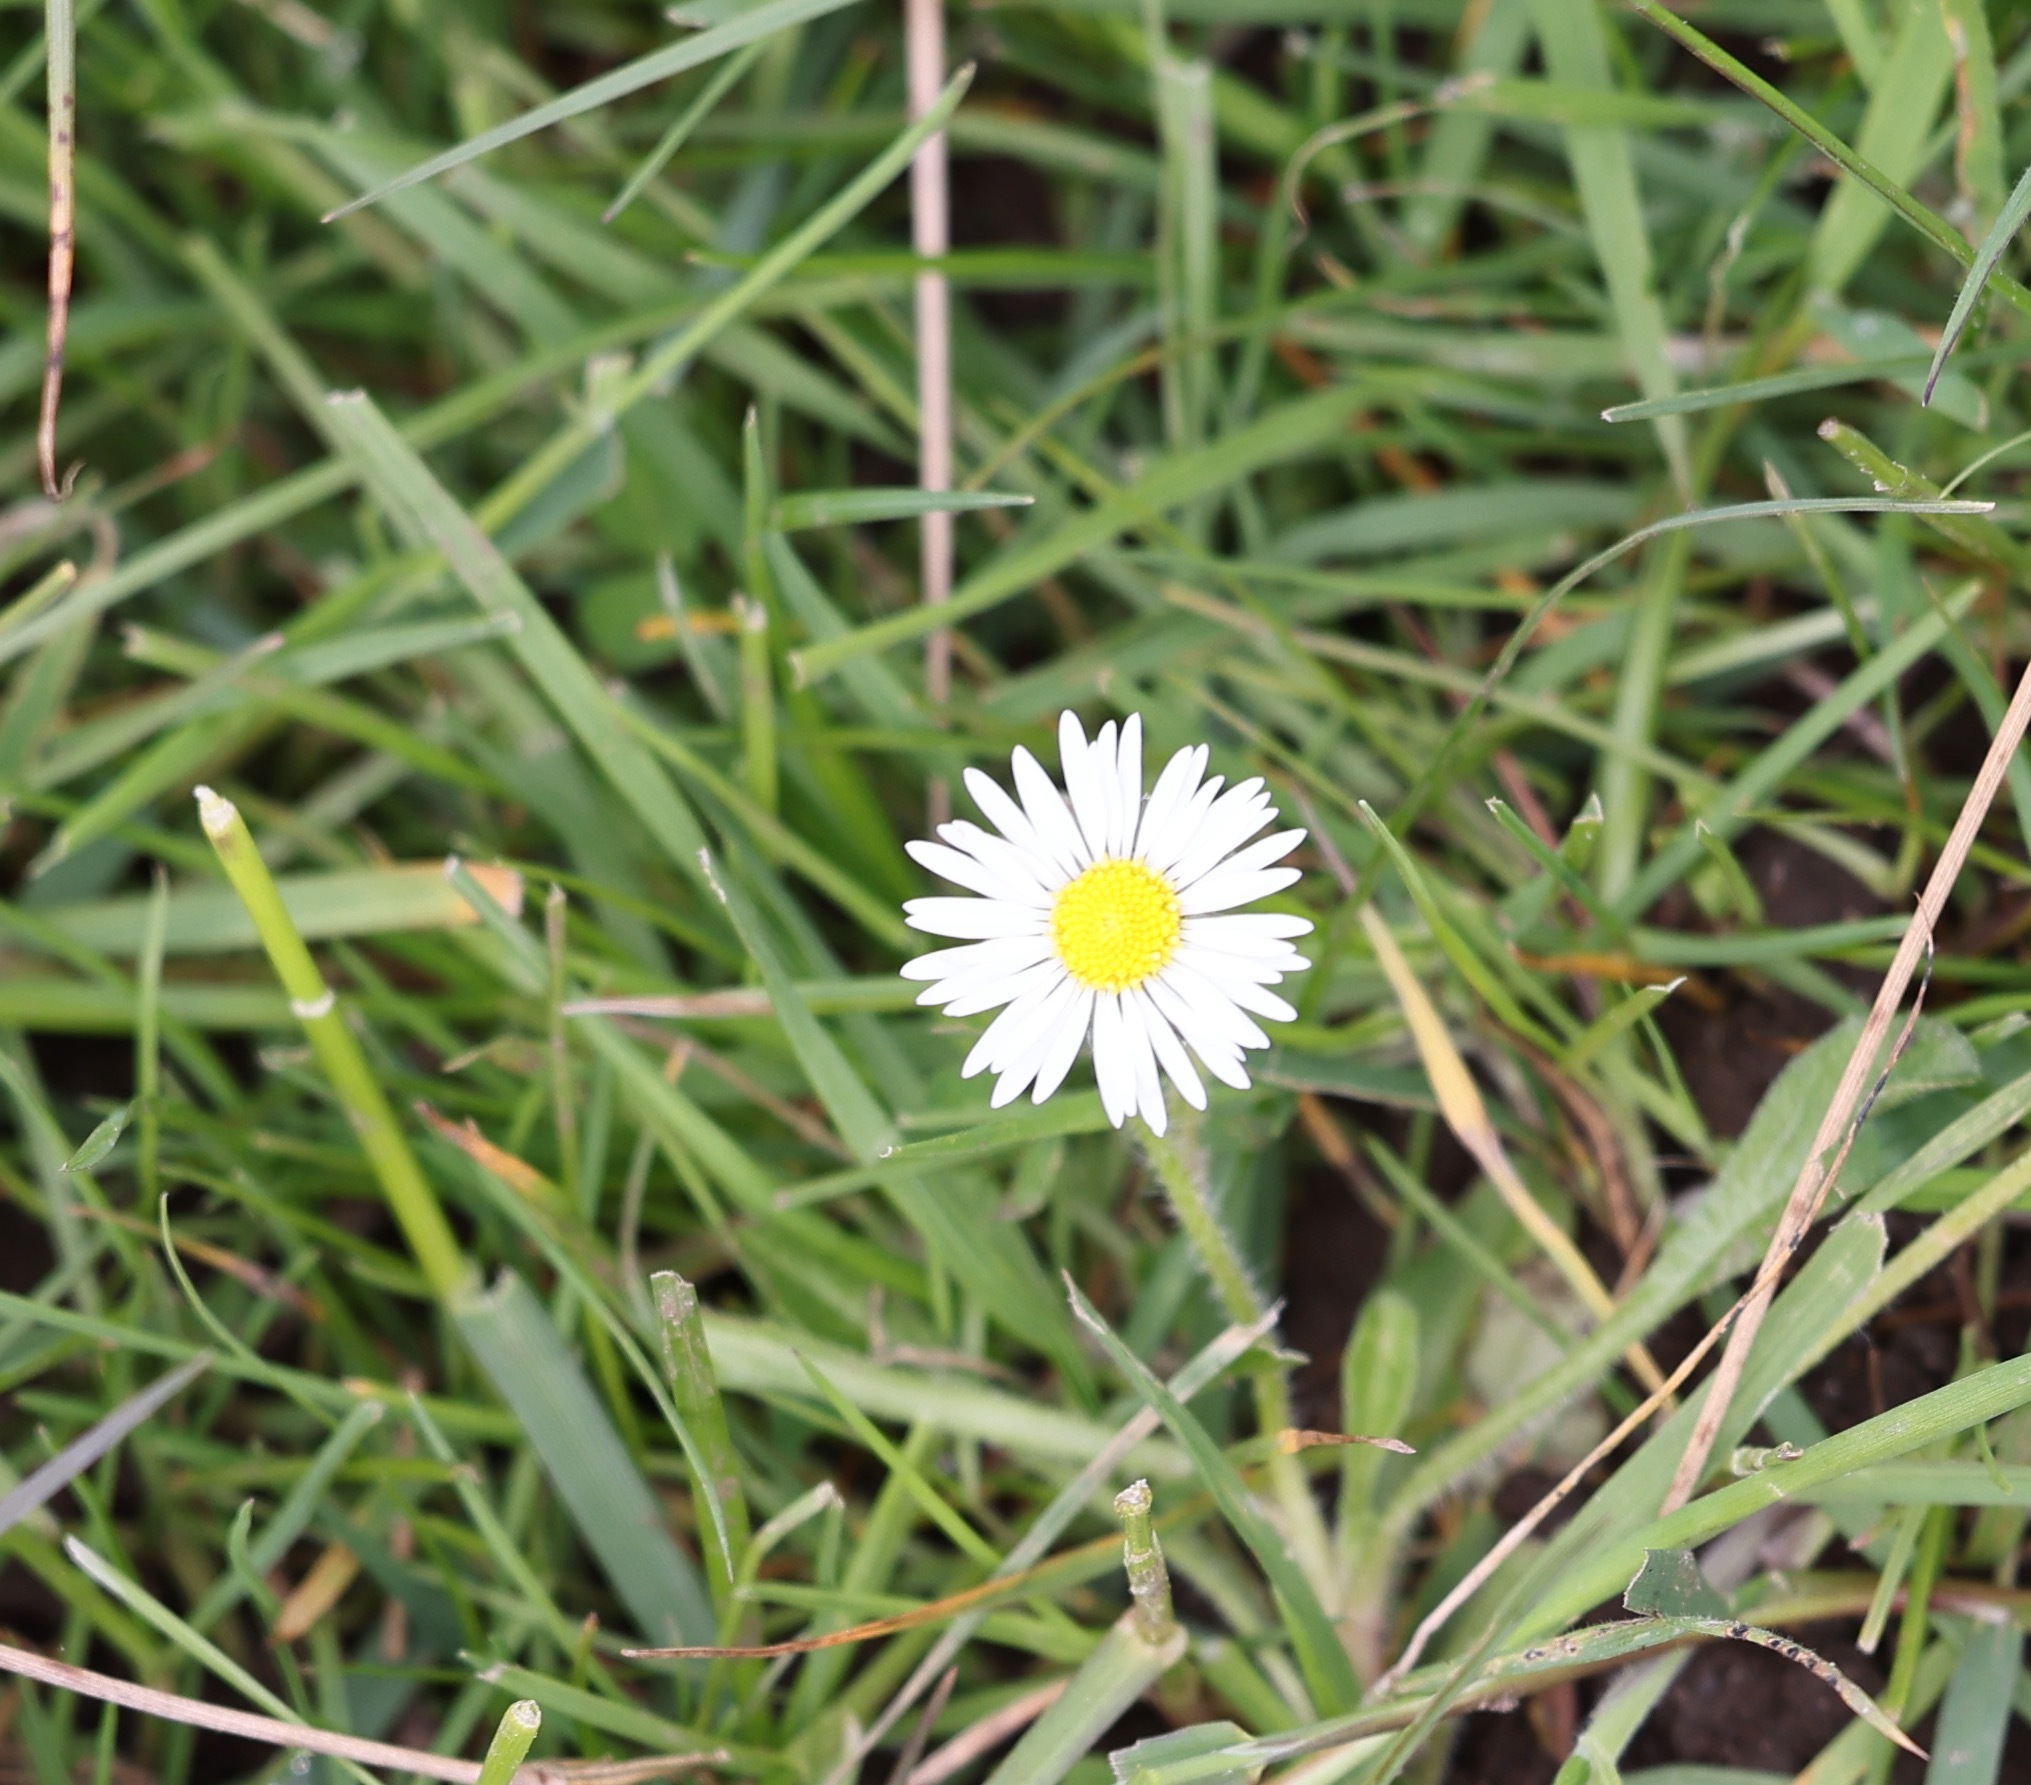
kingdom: Plantae
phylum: Tracheophyta
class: Magnoliopsida
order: Asterales
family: Asteraceae
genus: Bellis
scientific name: Bellis perennis
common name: Lawndaisy
